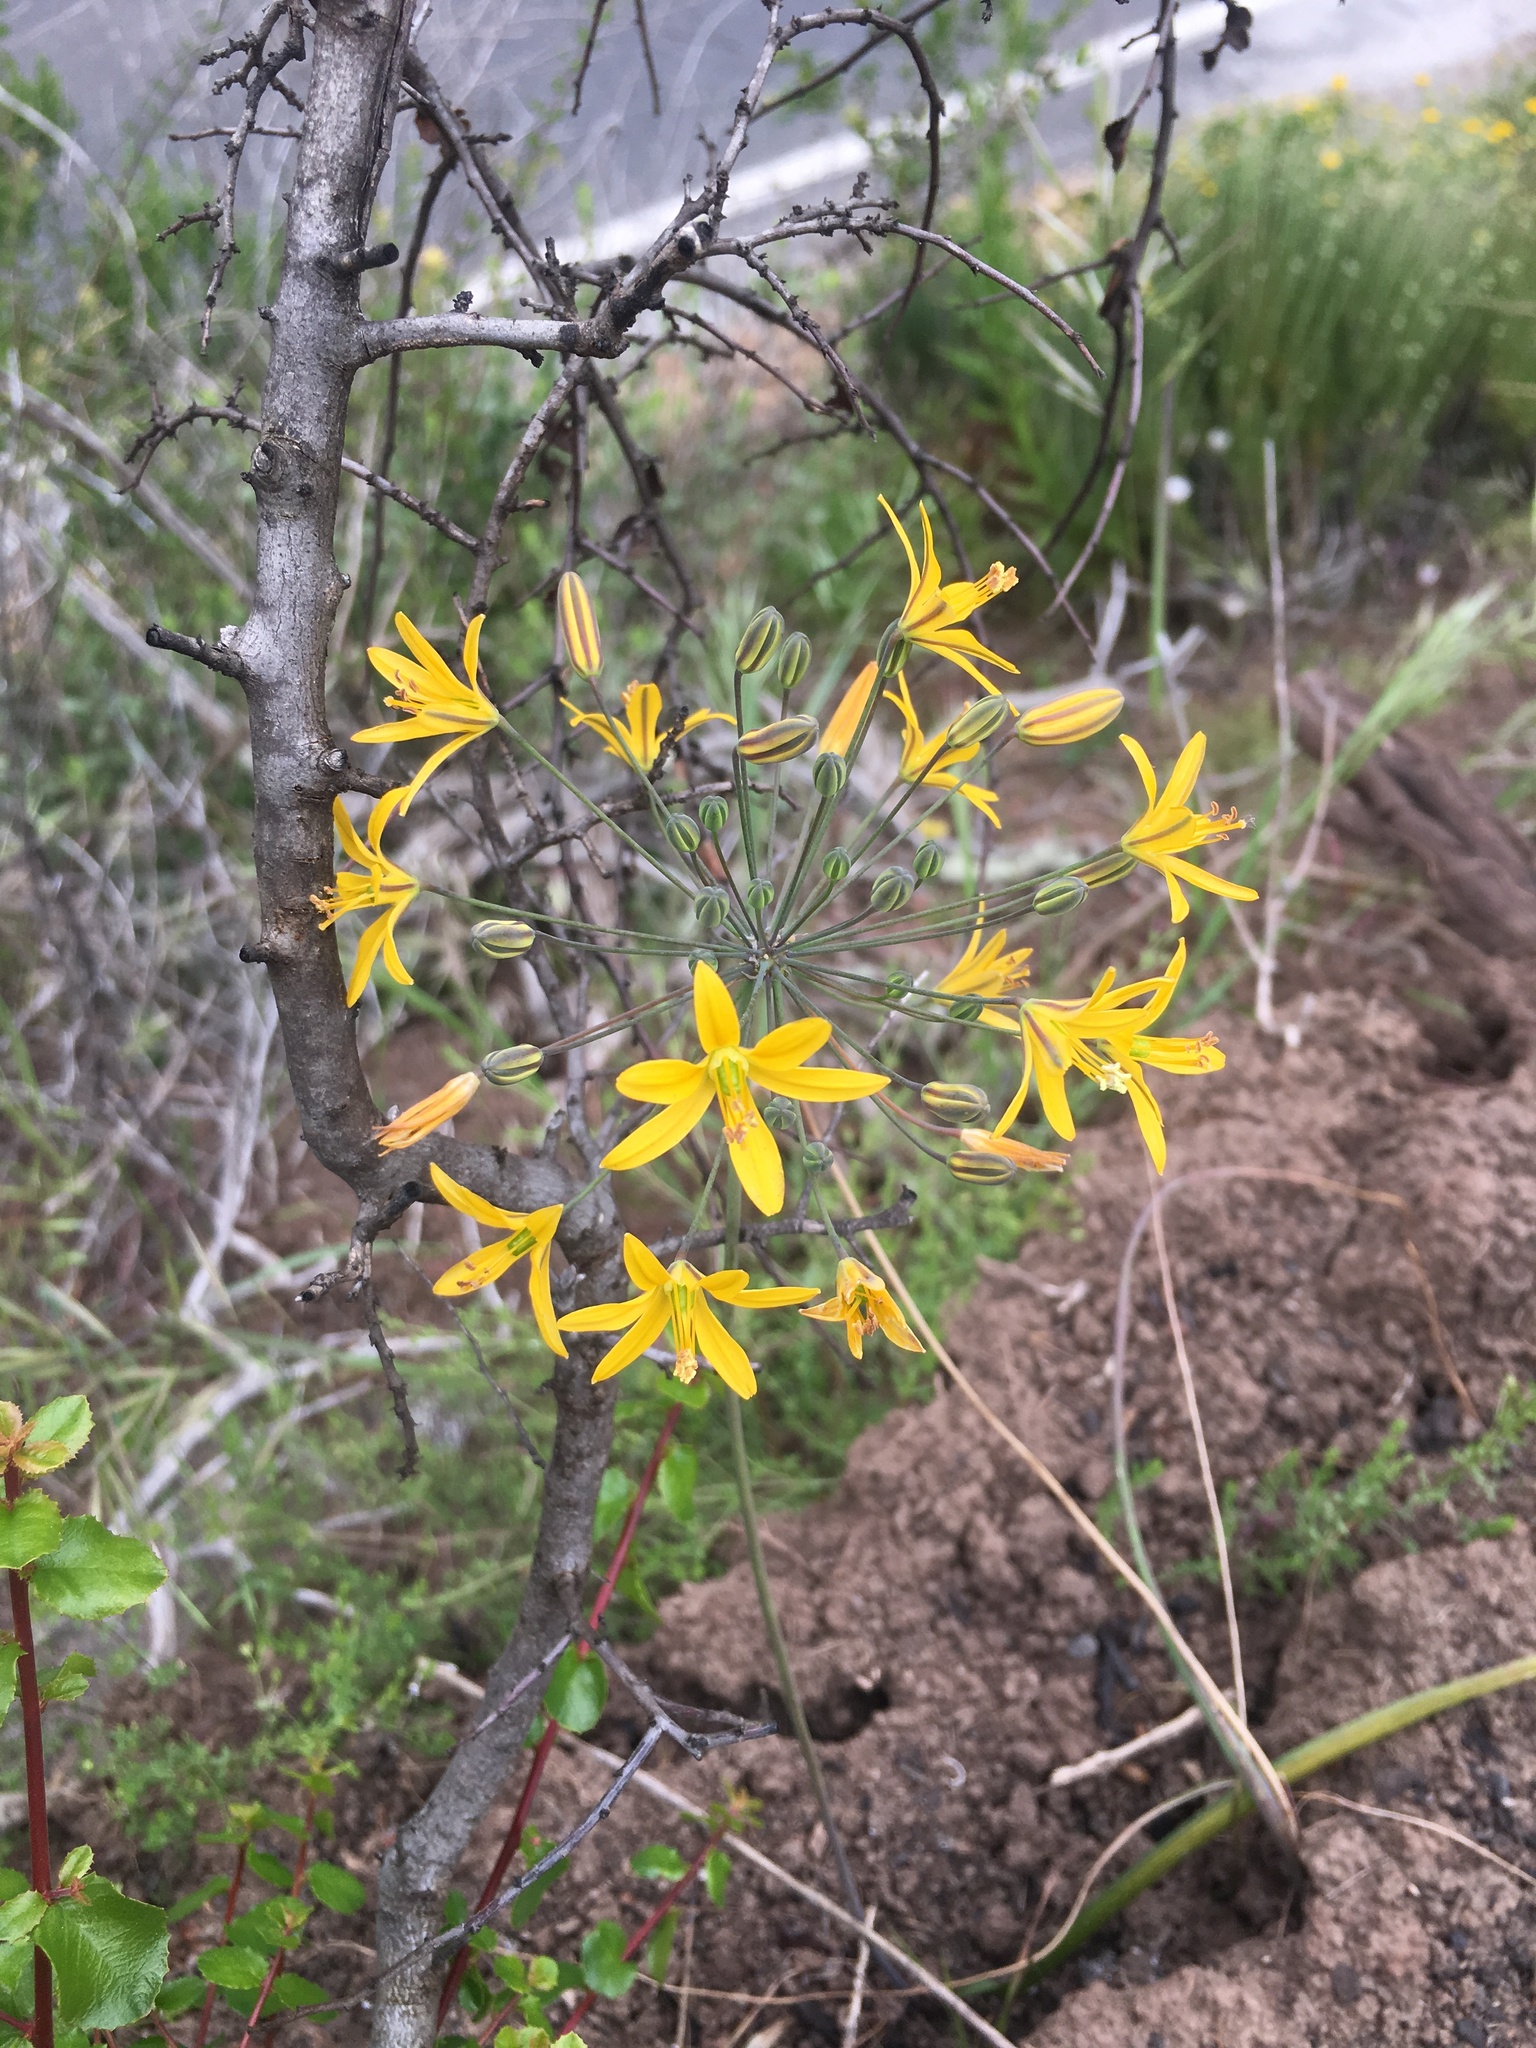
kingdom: Plantae
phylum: Tracheophyta
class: Liliopsida
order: Asparagales
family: Asparagaceae
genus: Bloomeria
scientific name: Bloomeria crocea
